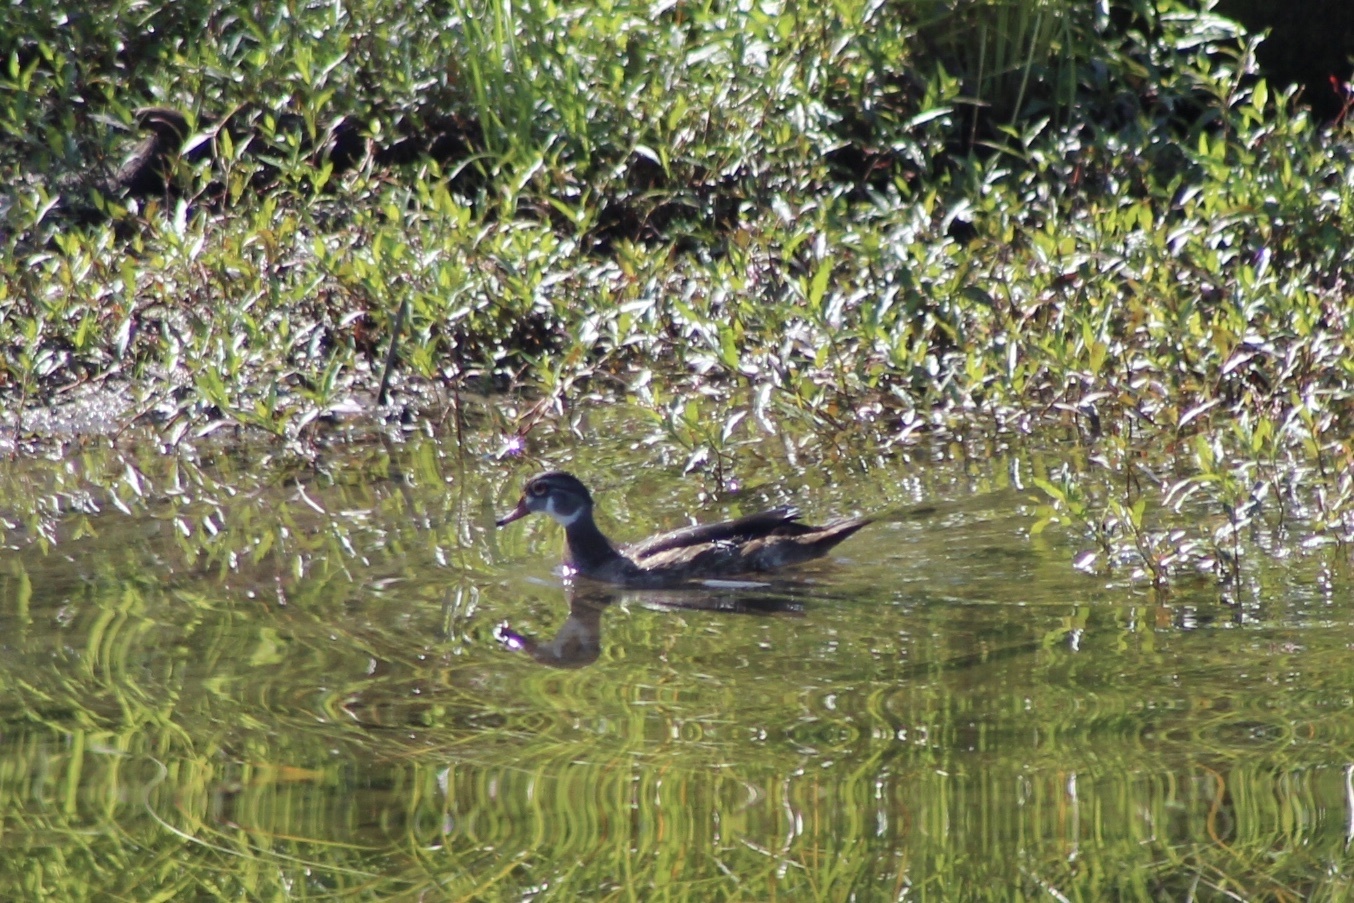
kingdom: Animalia
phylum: Chordata
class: Aves
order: Anseriformes
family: Anatidae
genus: Aix
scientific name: Aix sponsa
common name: Wood duck
